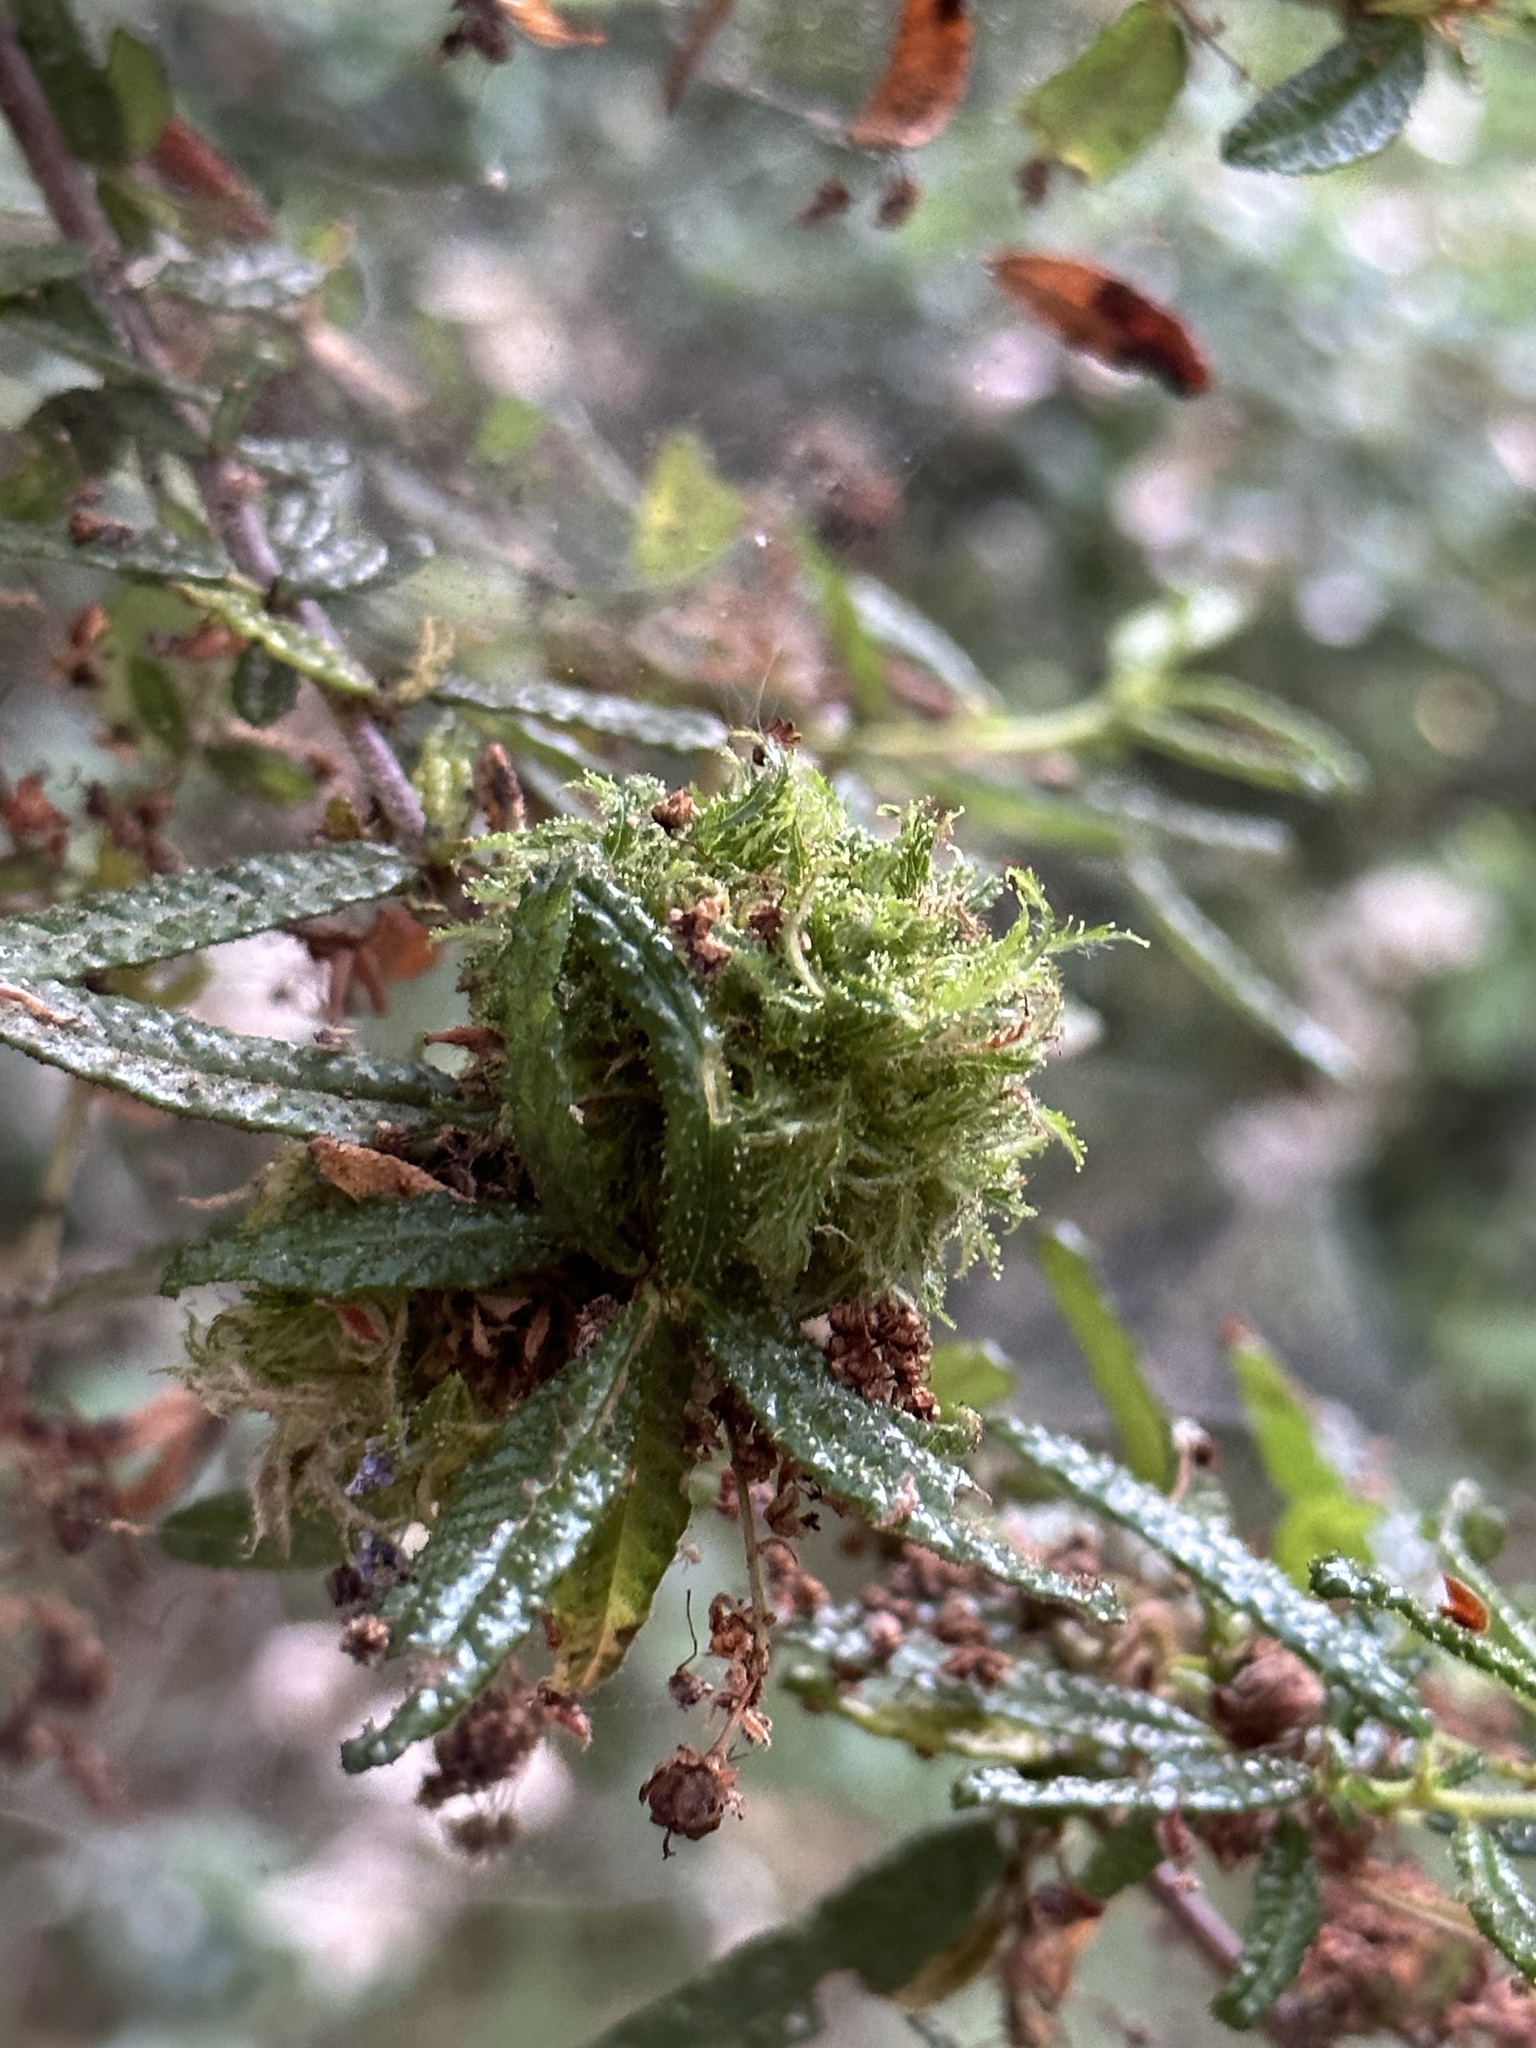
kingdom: Animalia
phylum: Arthropoda
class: Insecta
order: Diptera
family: Cecidomyiidae
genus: Asphondylia
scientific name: Asphondylia ceanothi
